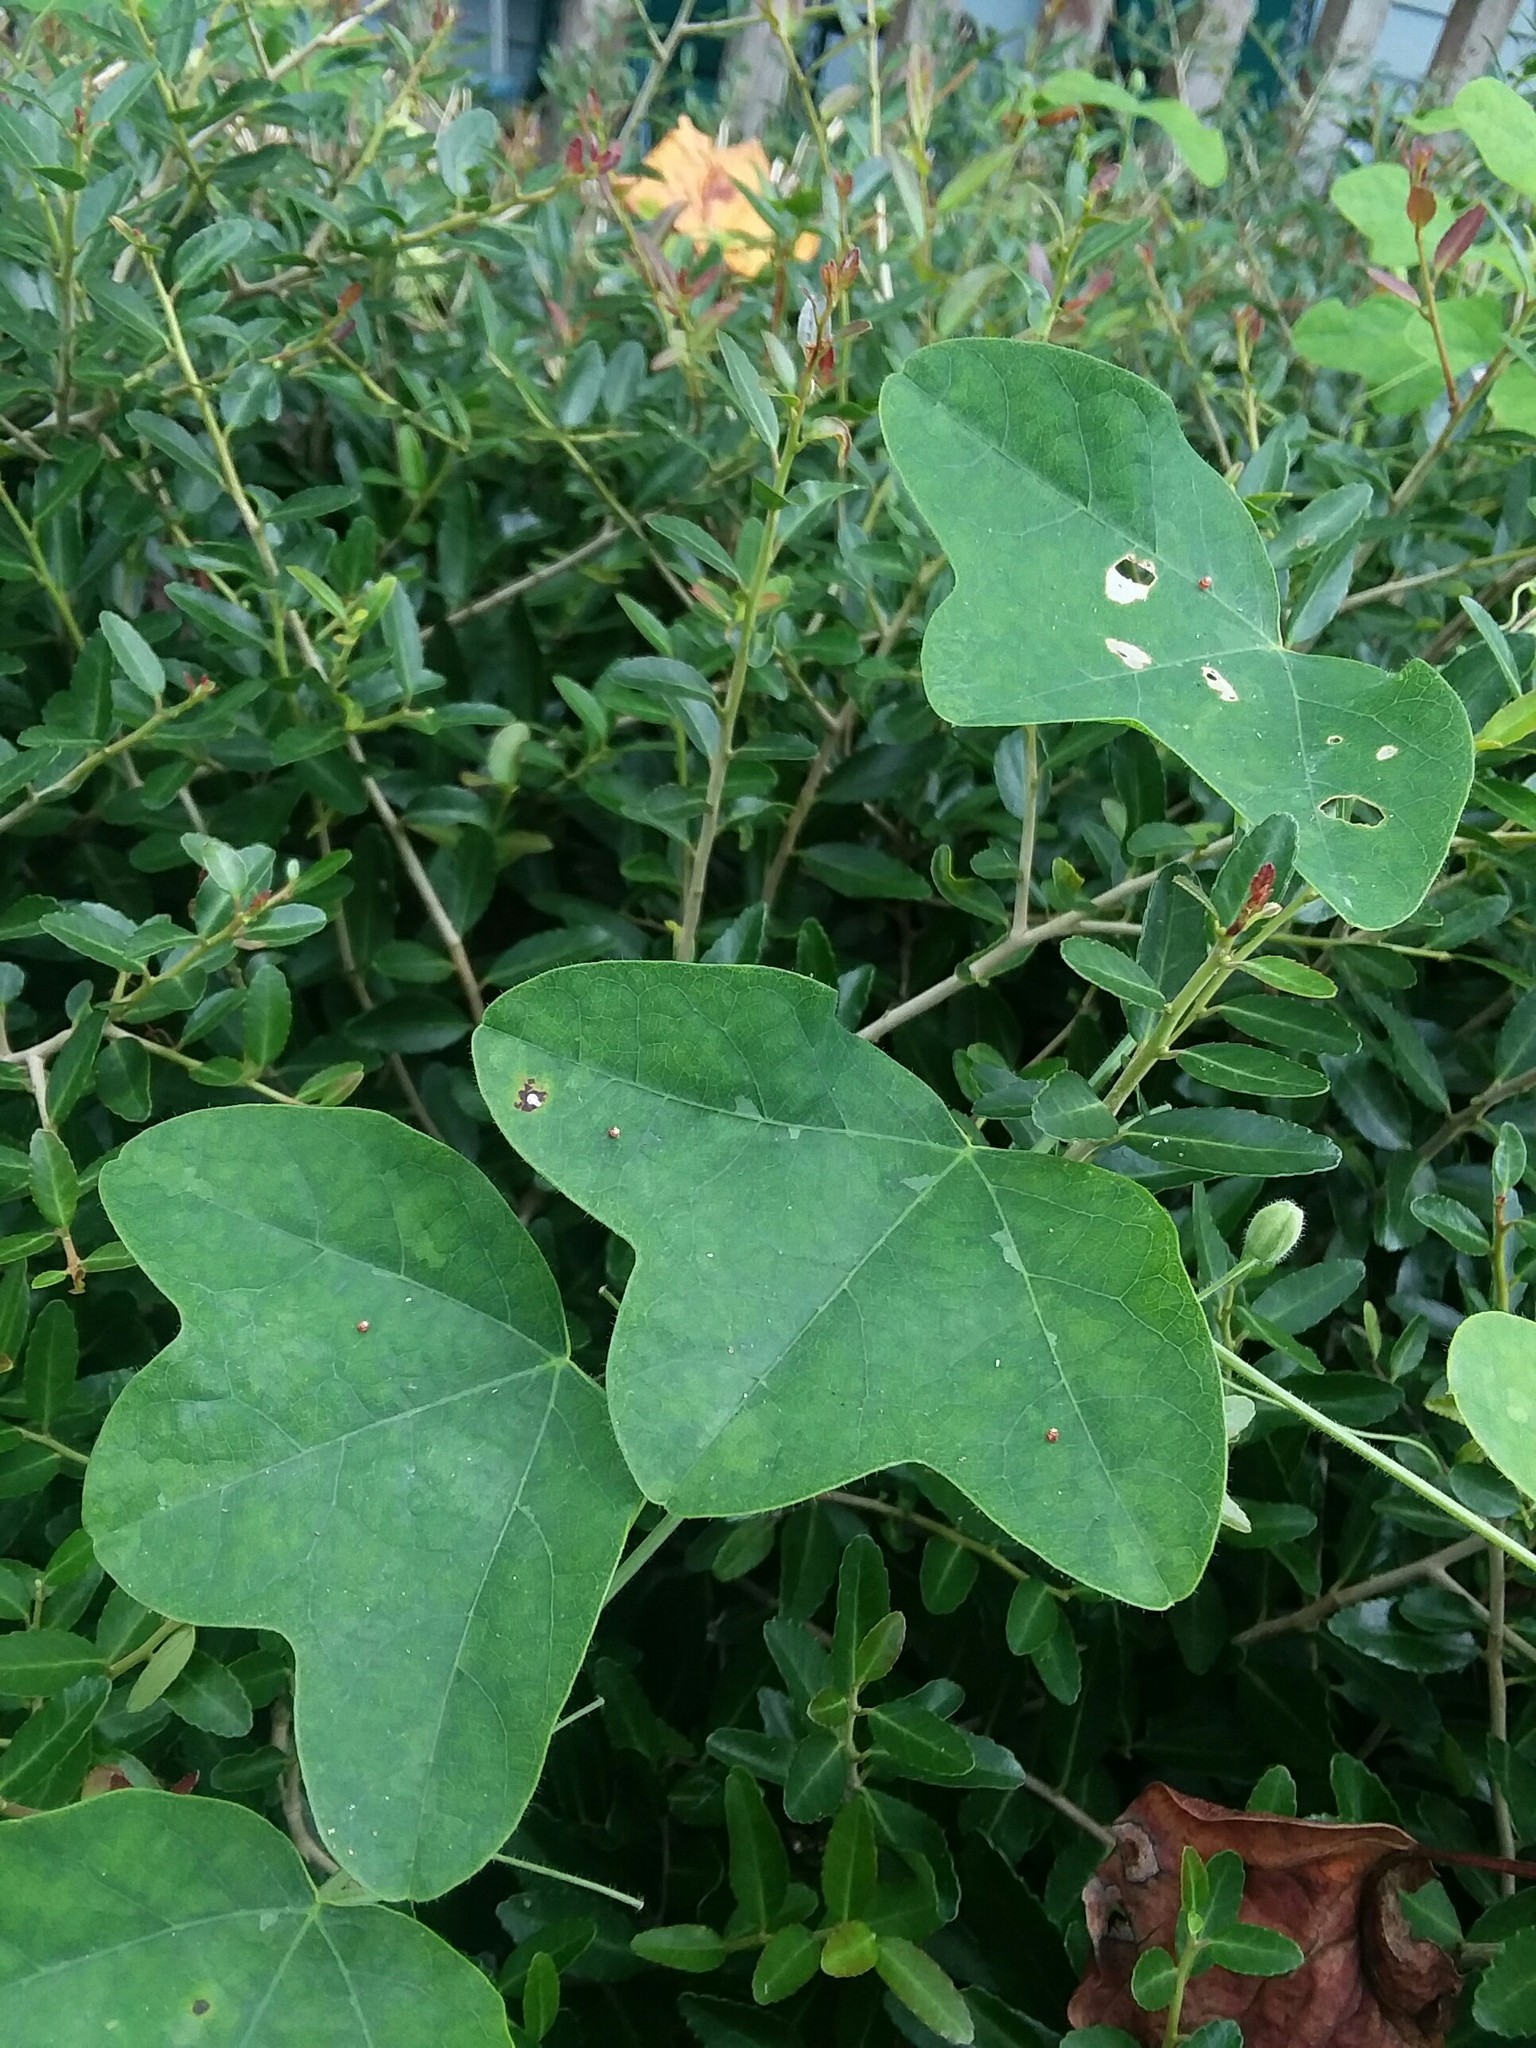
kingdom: Animalia
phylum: Arthropoda
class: Insecta
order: Lepidoptera
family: Nymphalidae
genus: Dione
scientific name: Dione vanillae
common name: Gulf fritillary
